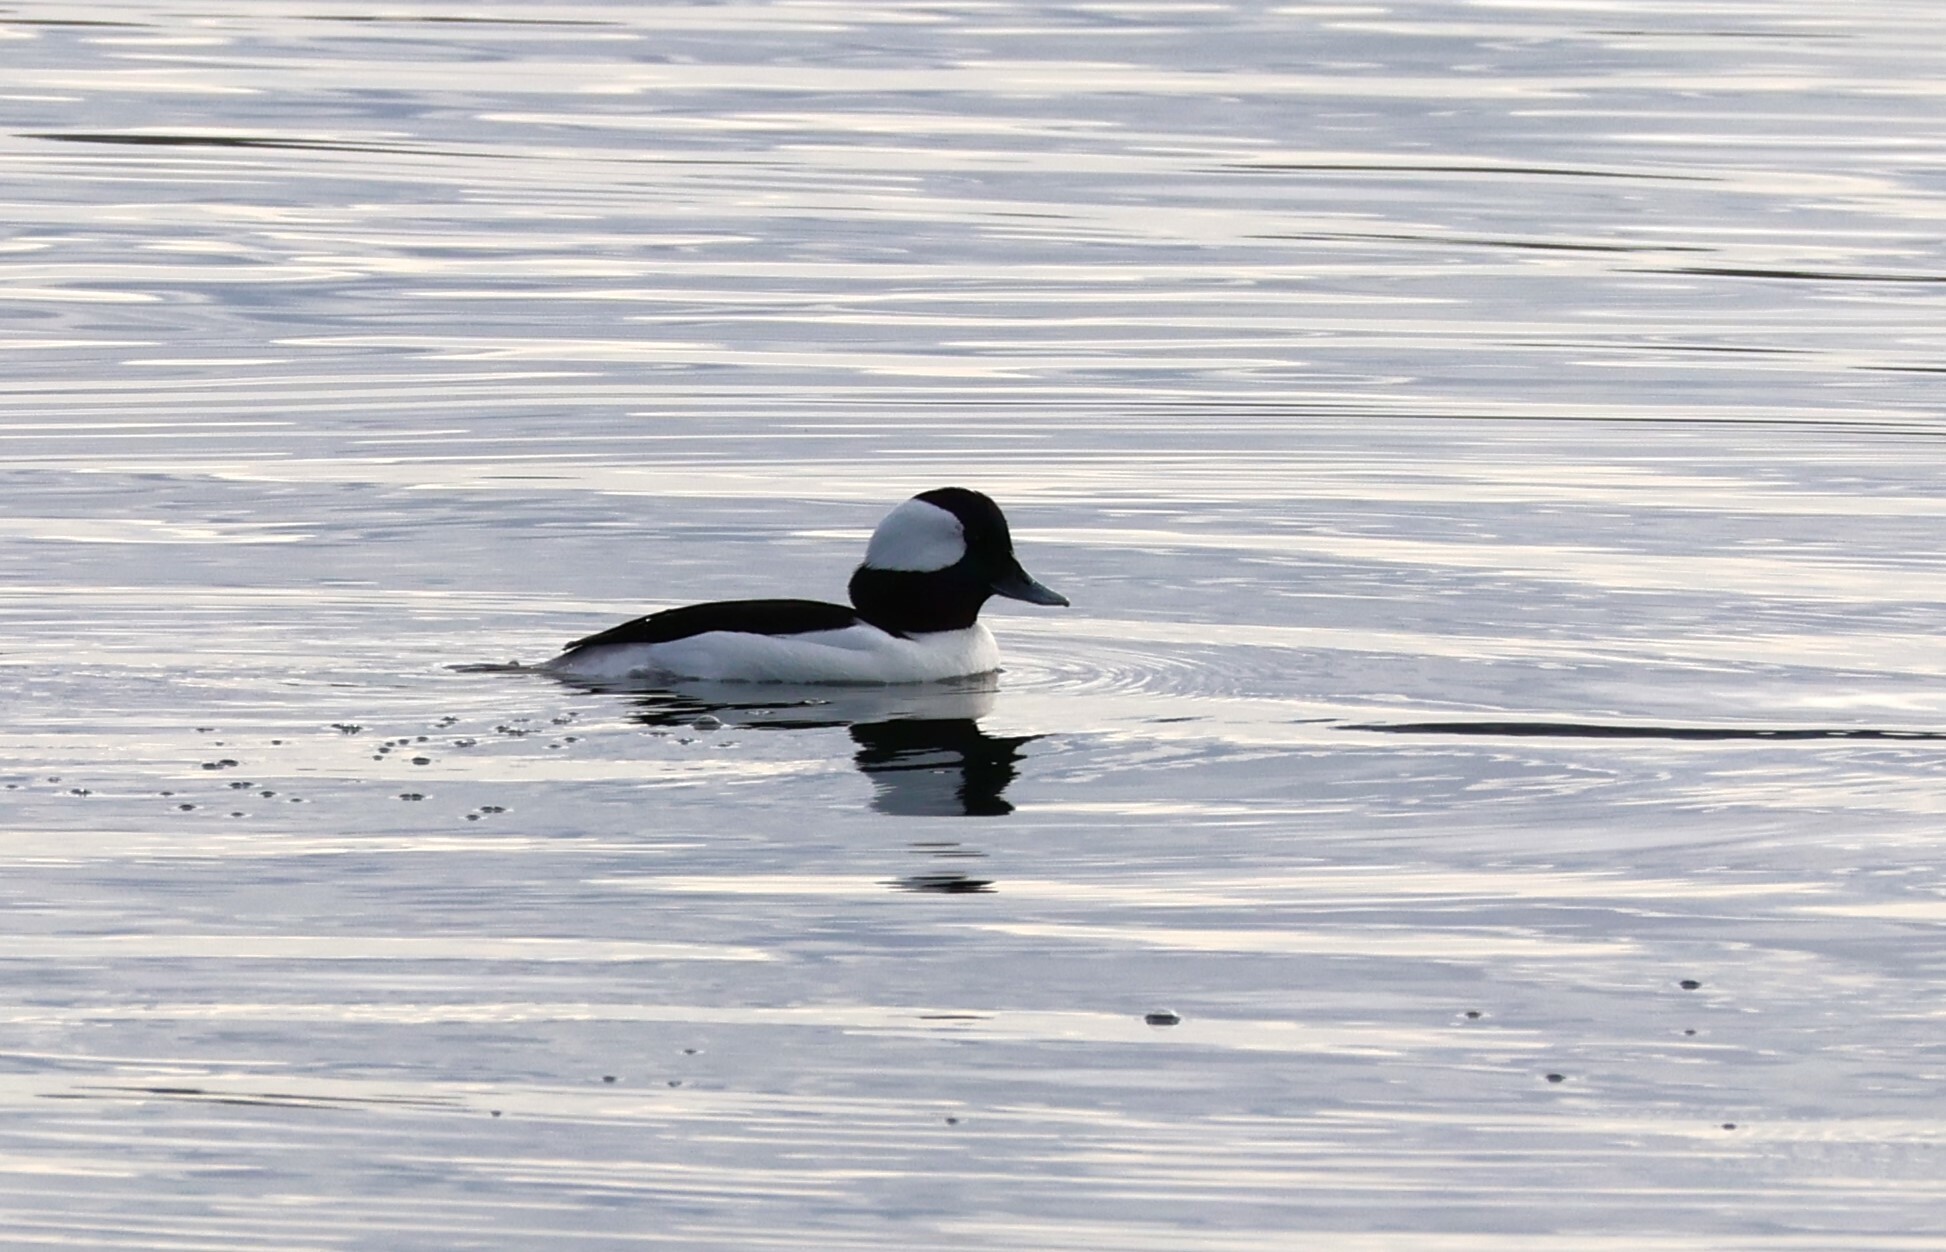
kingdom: Animalia
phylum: Chordata
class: Aves
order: Anseriformes
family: Anatidae
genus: Bucephala
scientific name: Bucephala albeola
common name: Bufflehead
